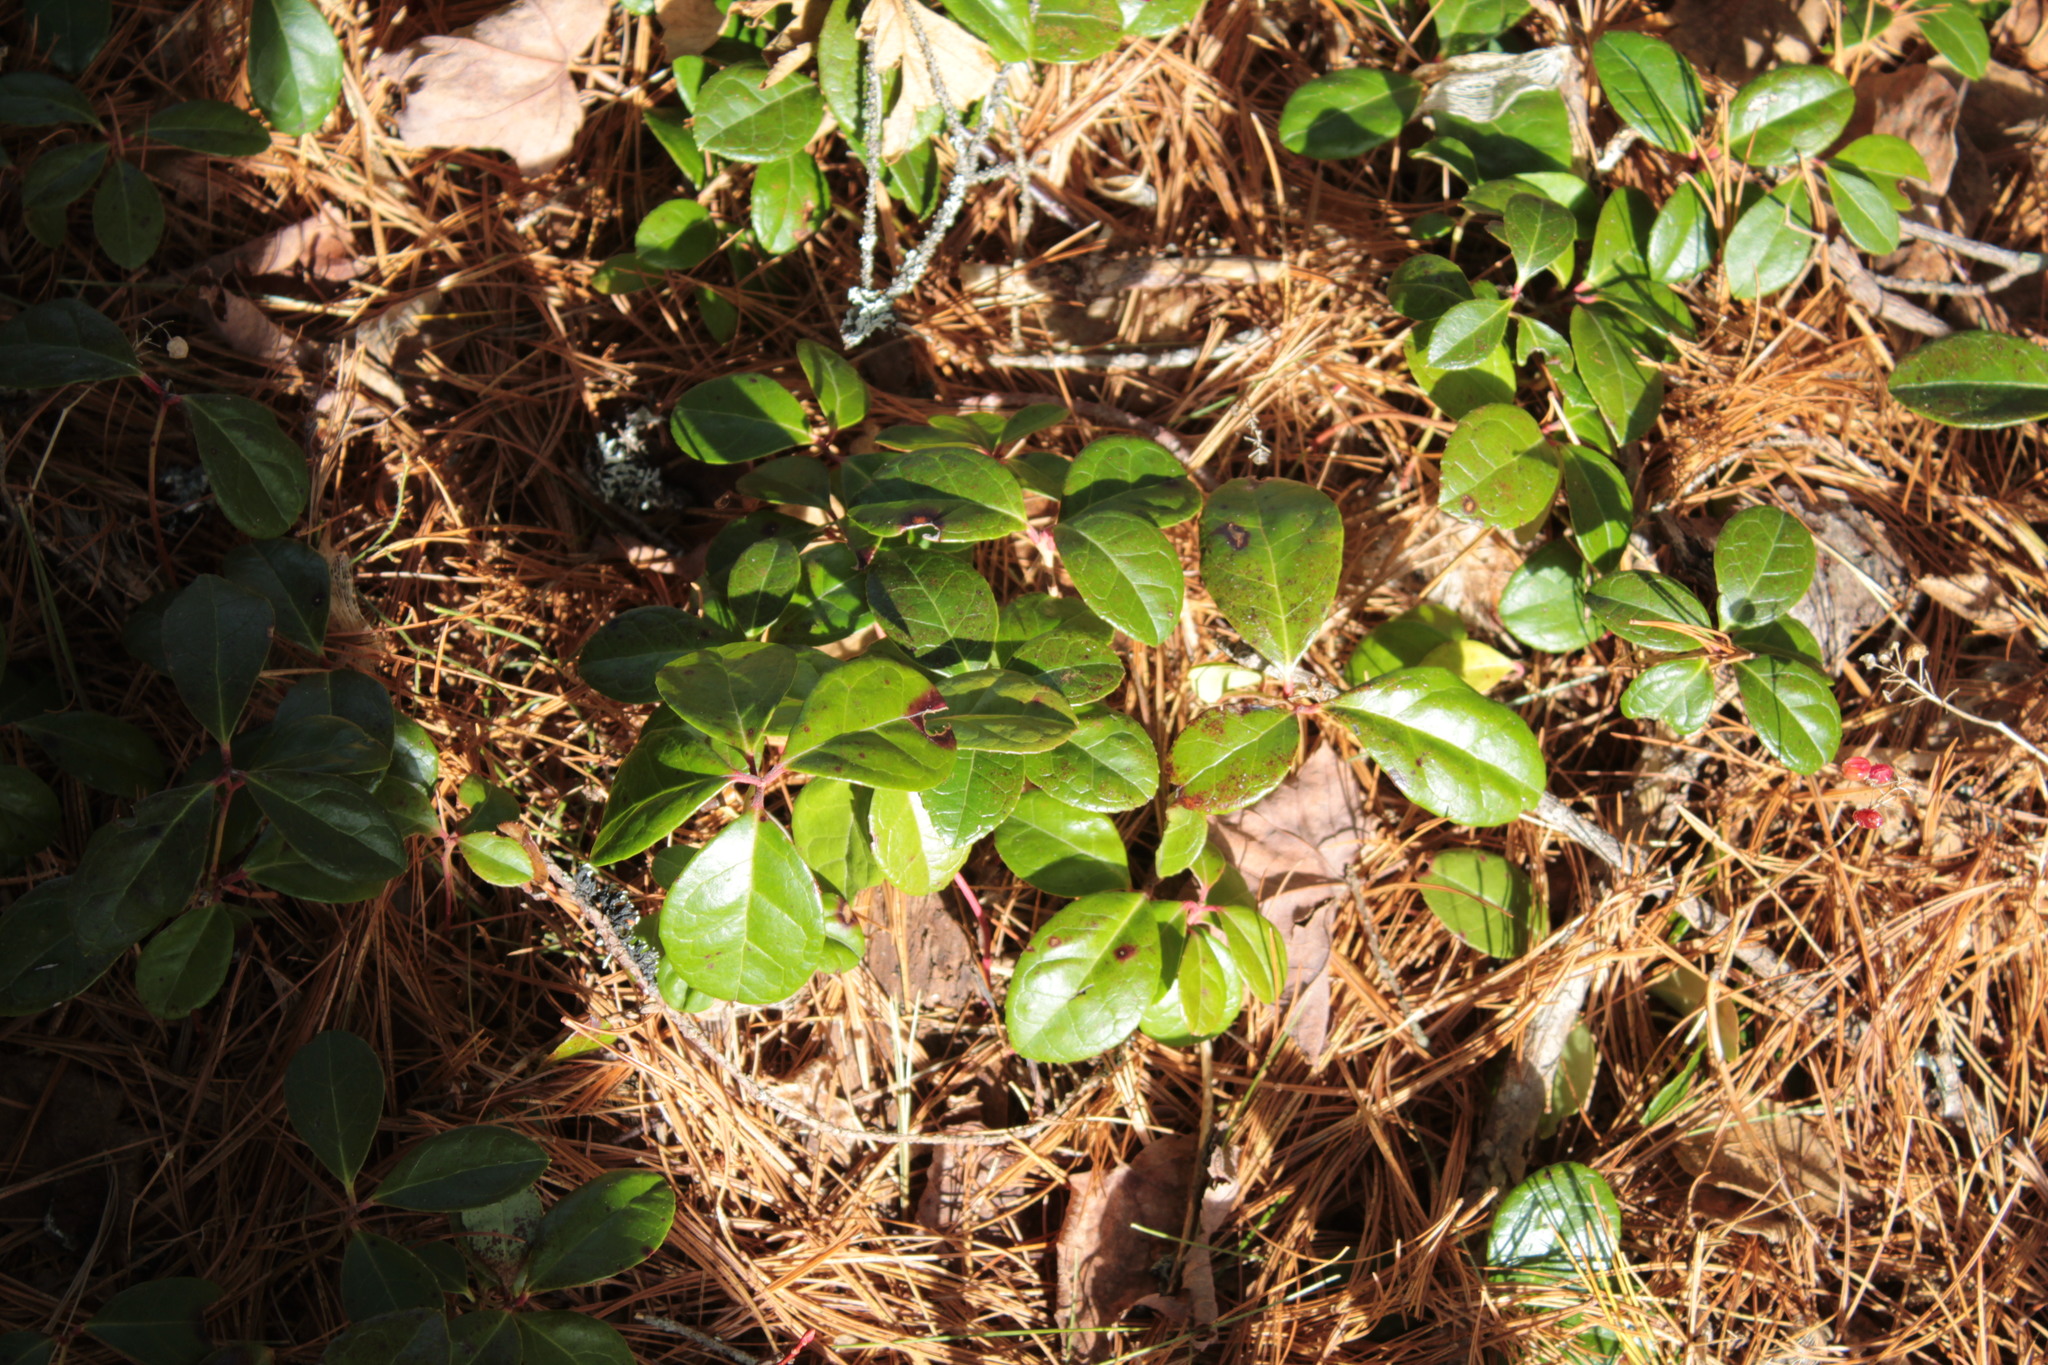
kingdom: Plantae
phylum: Tracheophyta
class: Magnoliopsida
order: Ericales
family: Ericaceae
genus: Gaultheria
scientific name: Gaultheria procumbens
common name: Checkerberry
